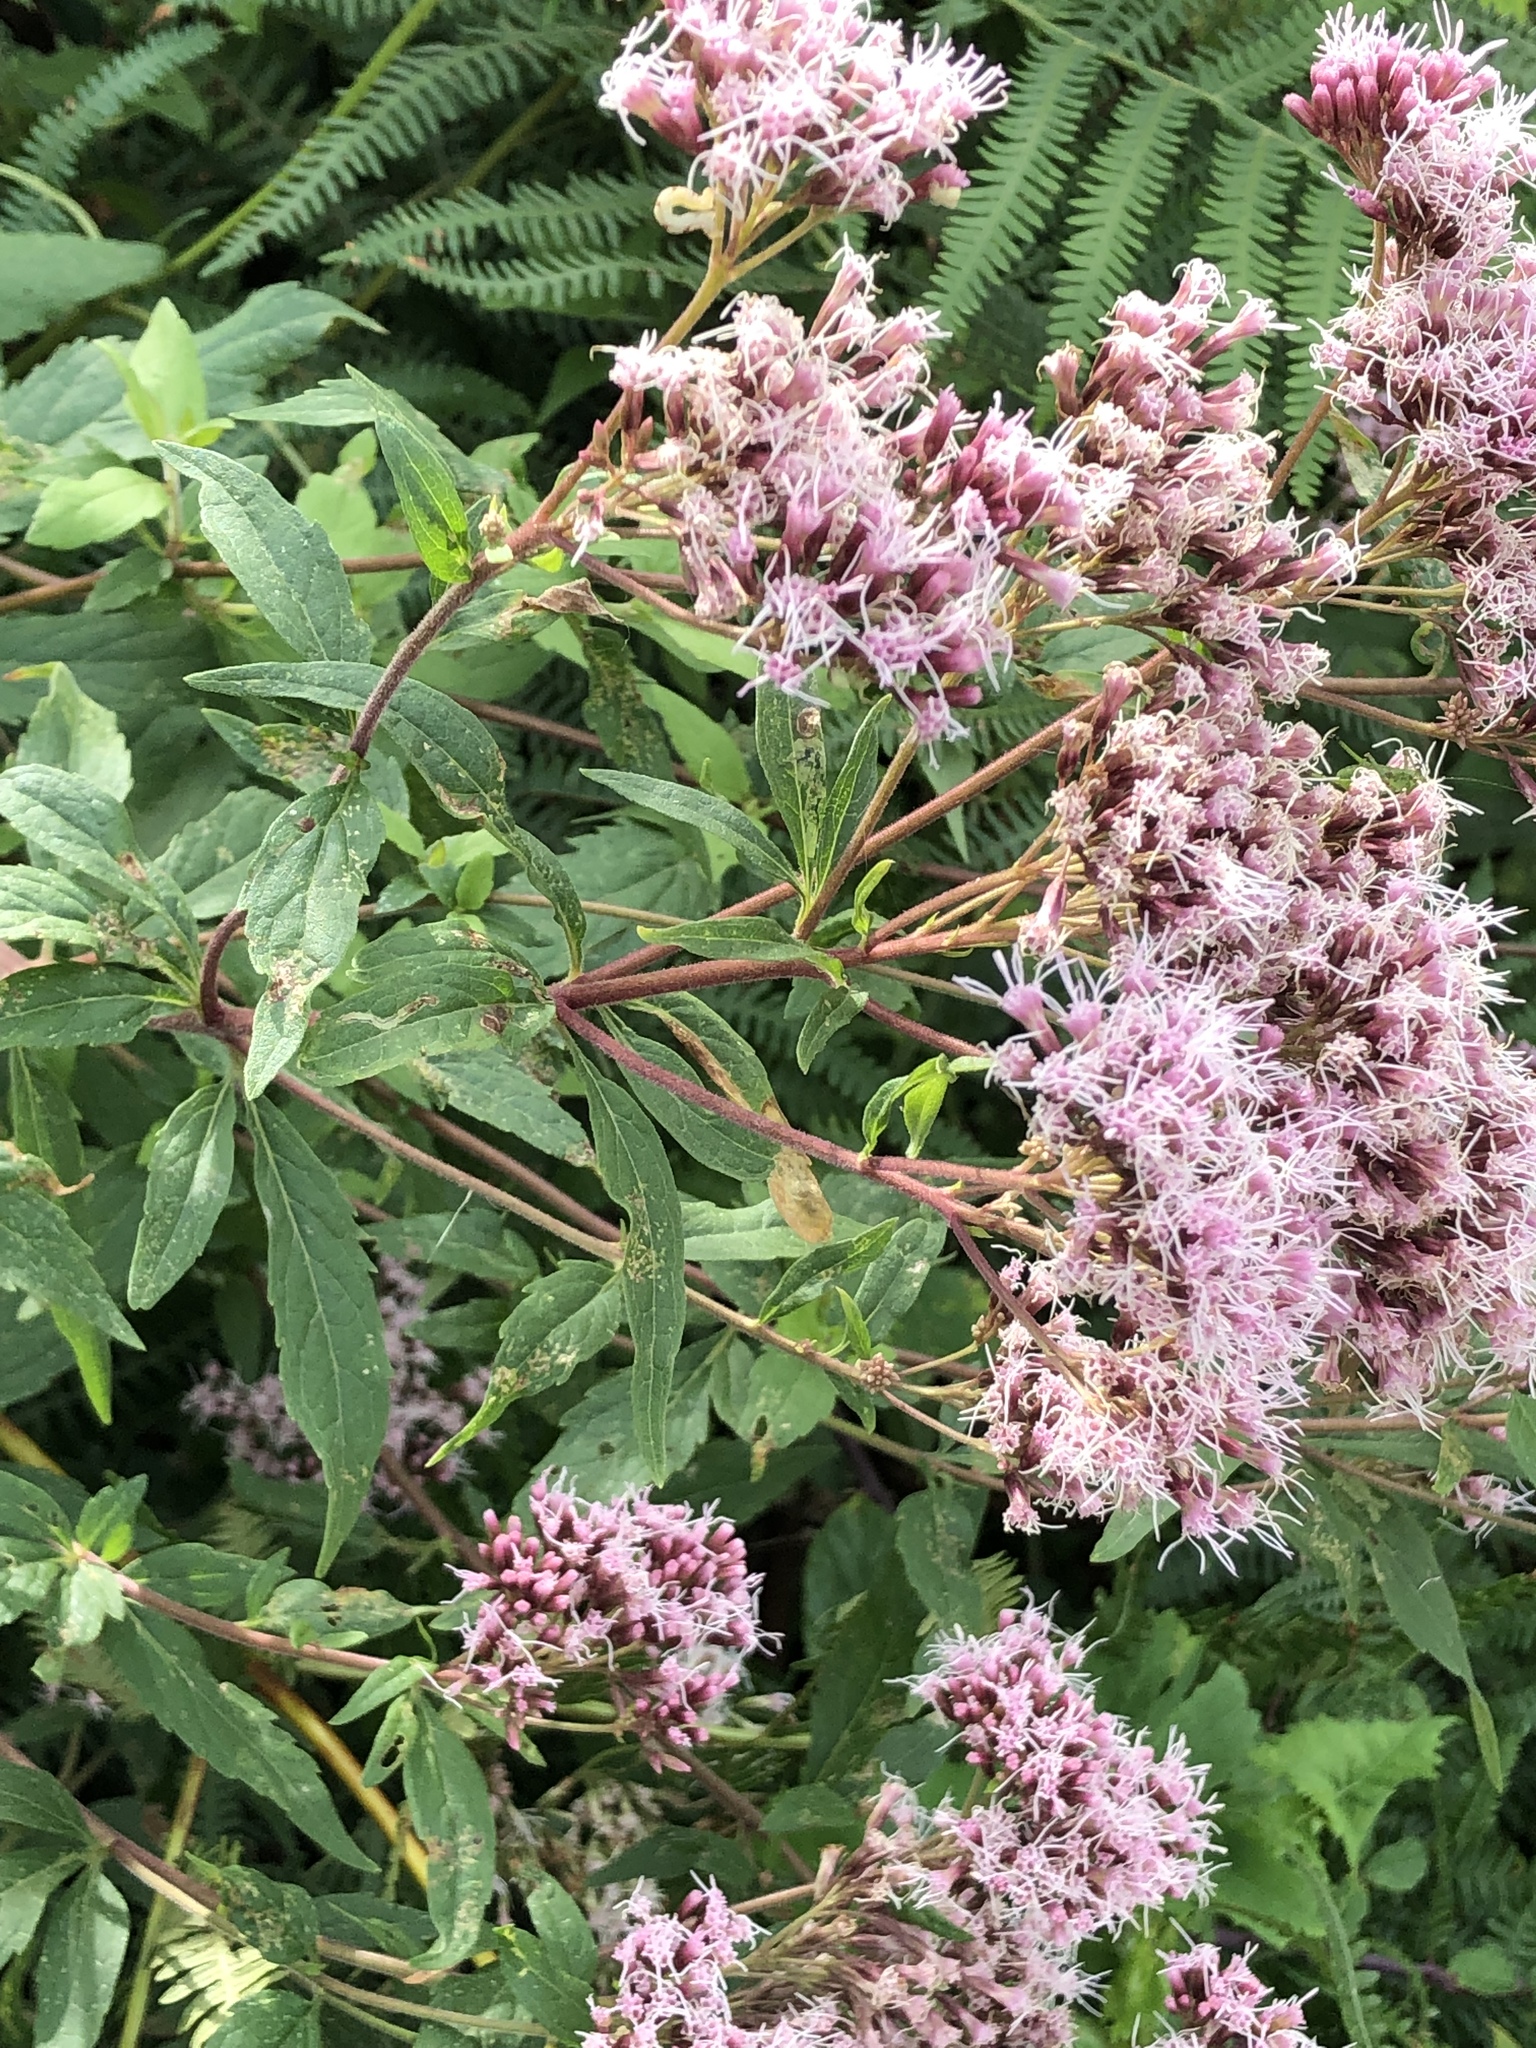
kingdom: Plantae
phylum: Tracheophyta
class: Magnoliopsida
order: Asterales
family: Asteraceae
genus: Eupatorium
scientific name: Eupatorium cannabinum
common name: Hemp-agrimony
